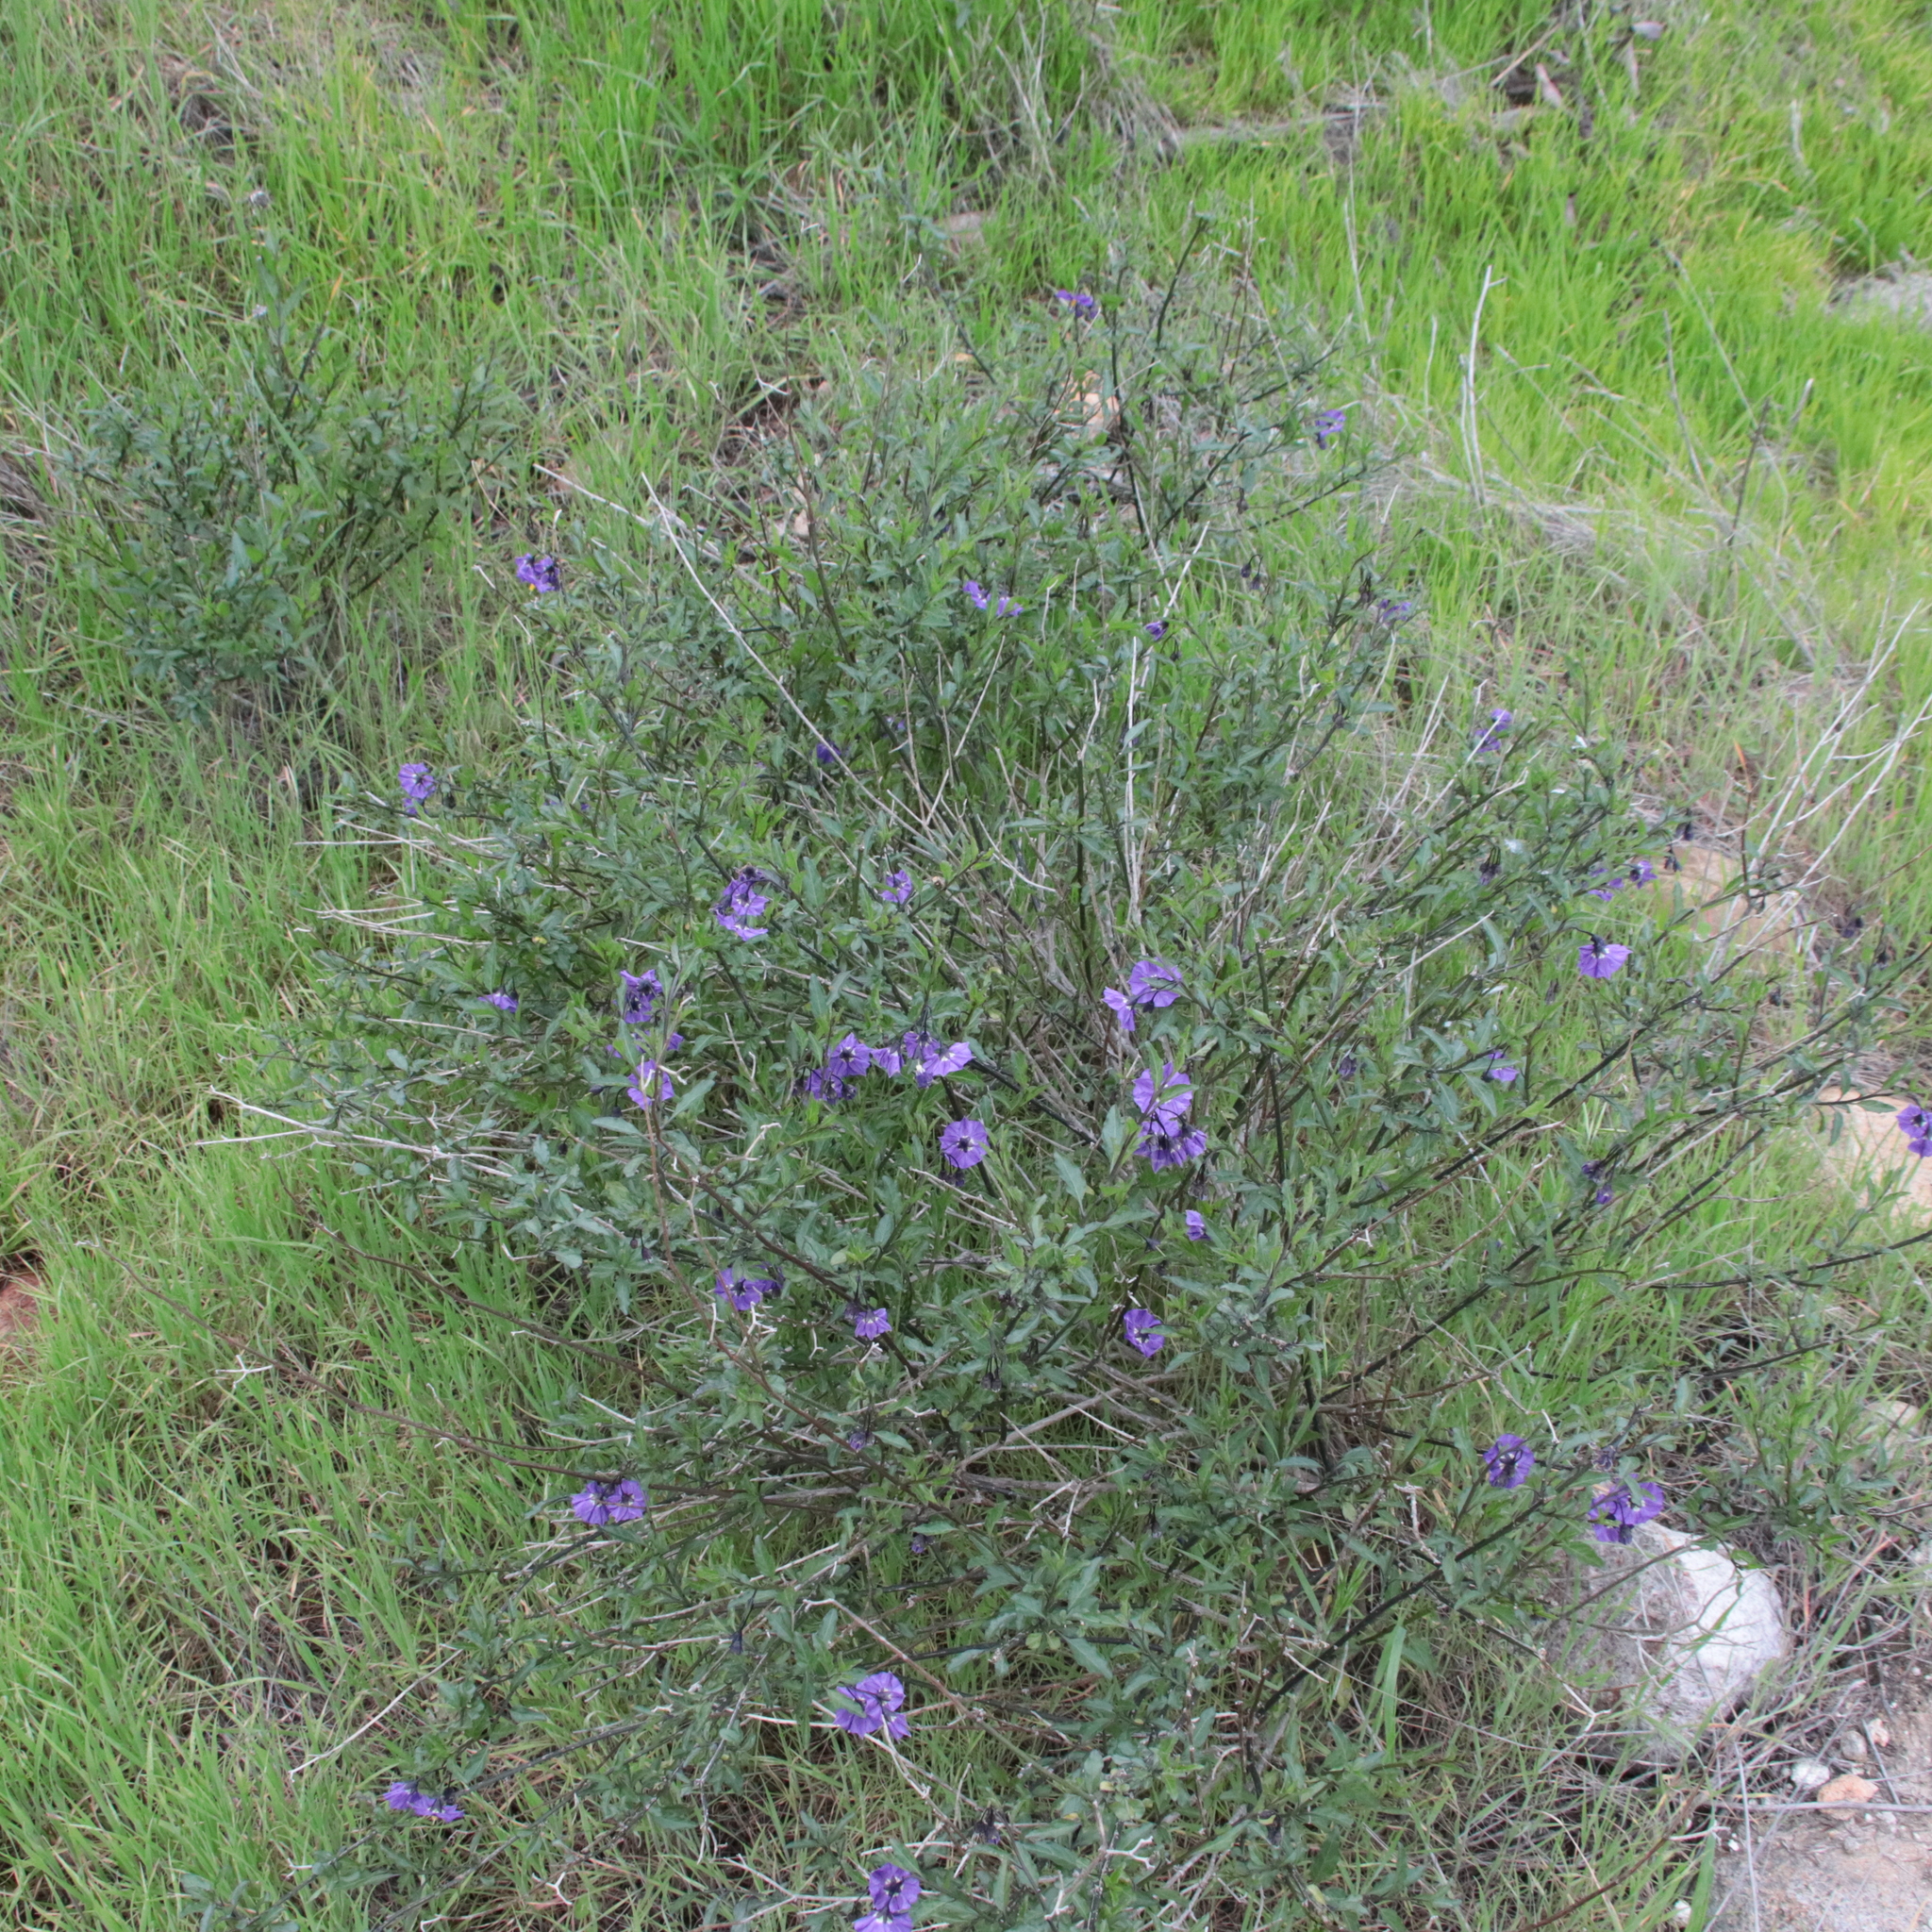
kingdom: Plantae
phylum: Tracheophyta
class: Magnoliopsida
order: Solanales
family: Solanaceae
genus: Solanum
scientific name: Solanum umbelliferum
